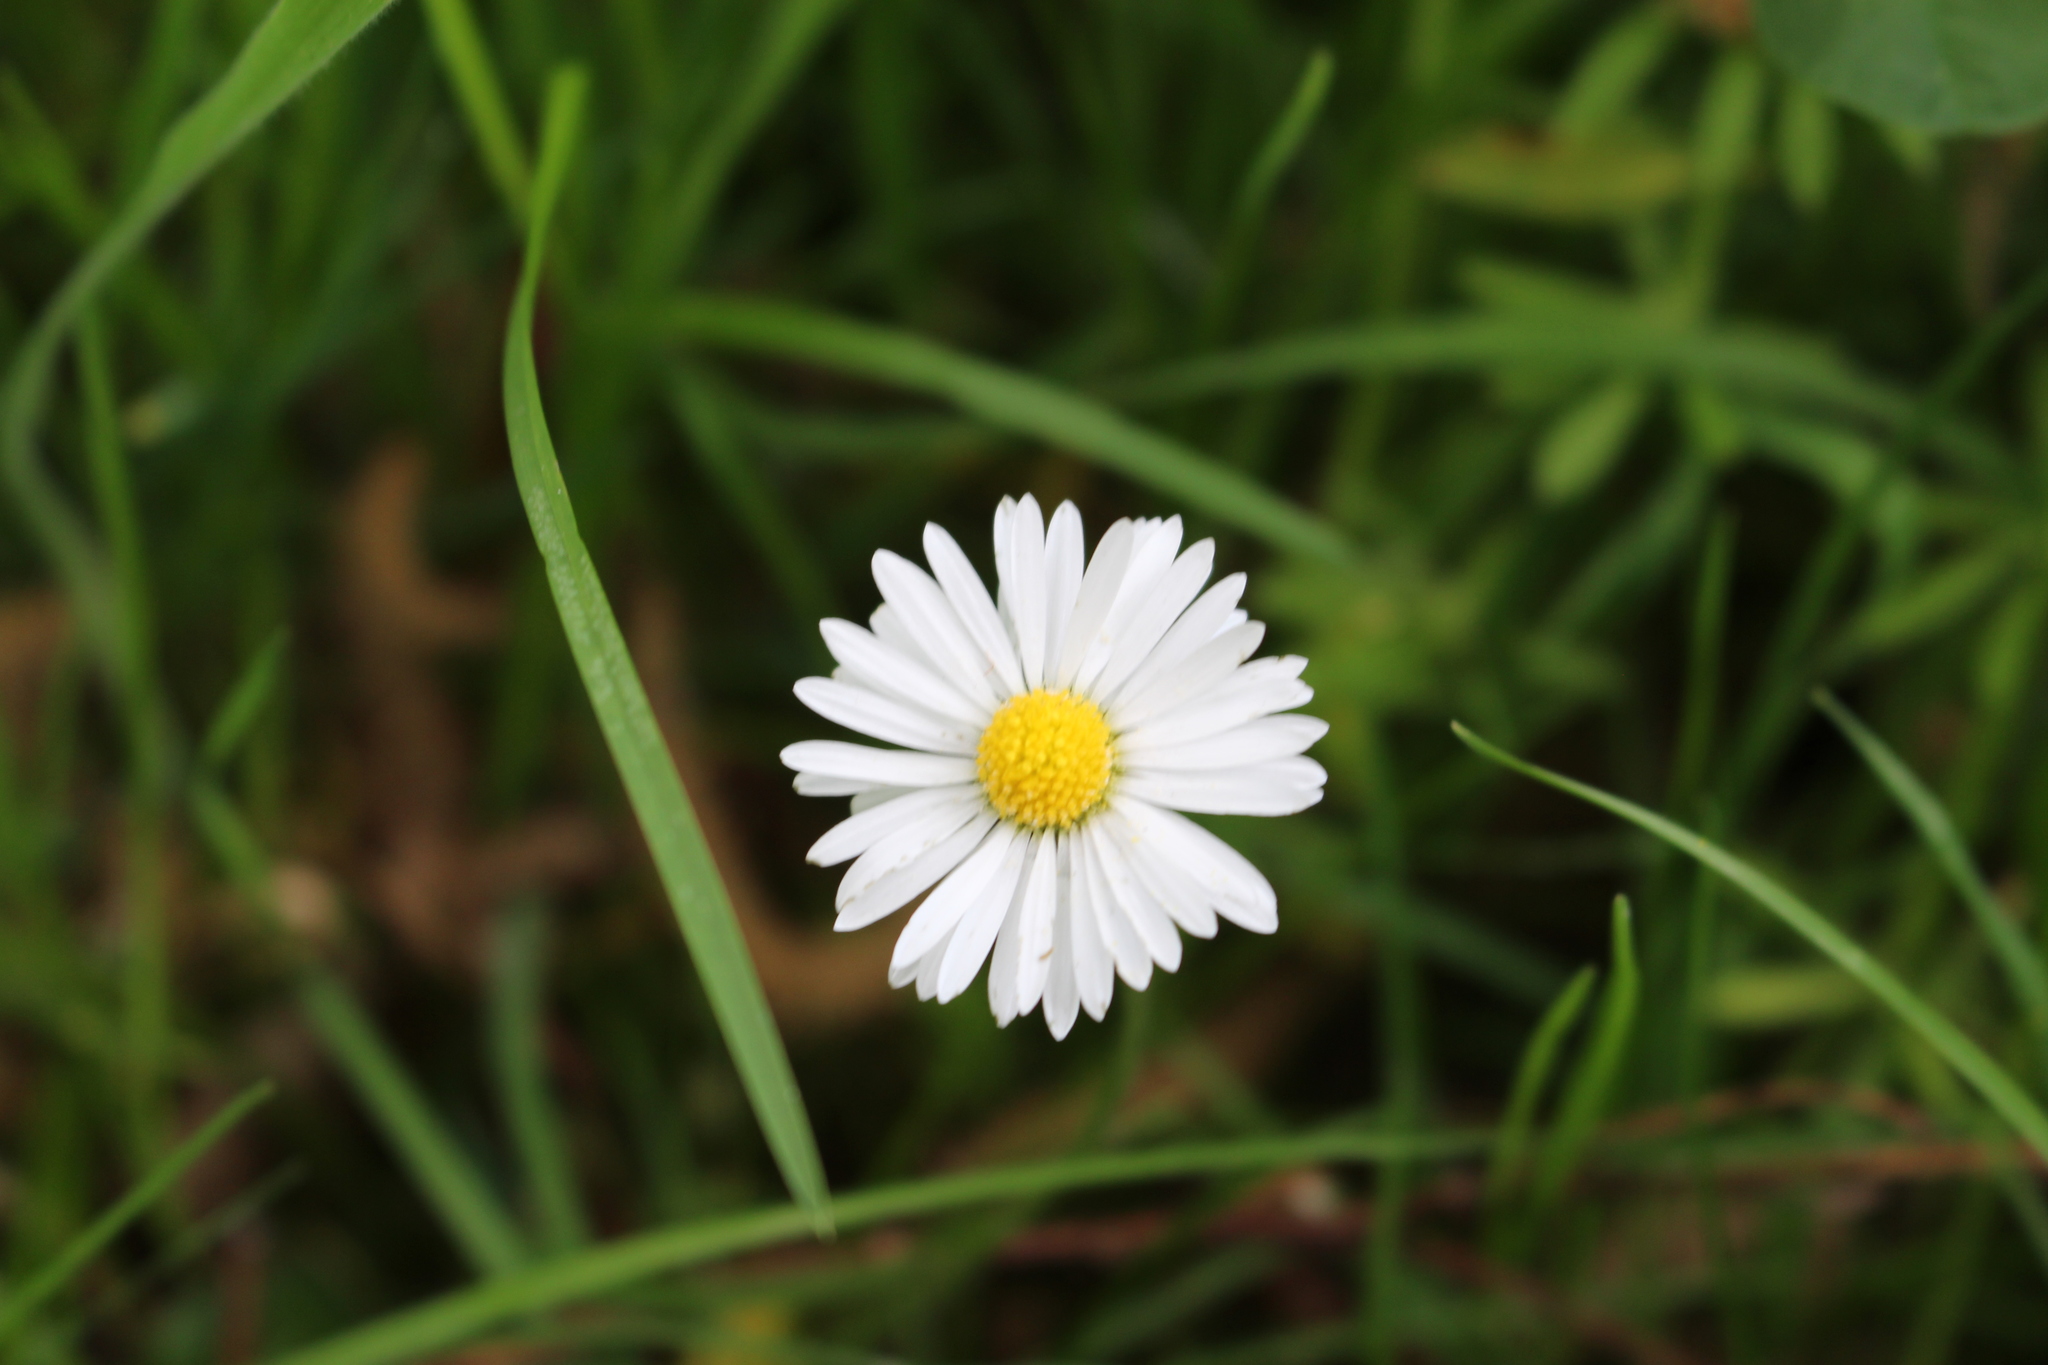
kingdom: Plantae
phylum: Tracheophyta
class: Magnoliopsida
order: Asterales
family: Asteraceae
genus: Bellis
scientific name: Bellis perennis
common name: Lawndaisy
